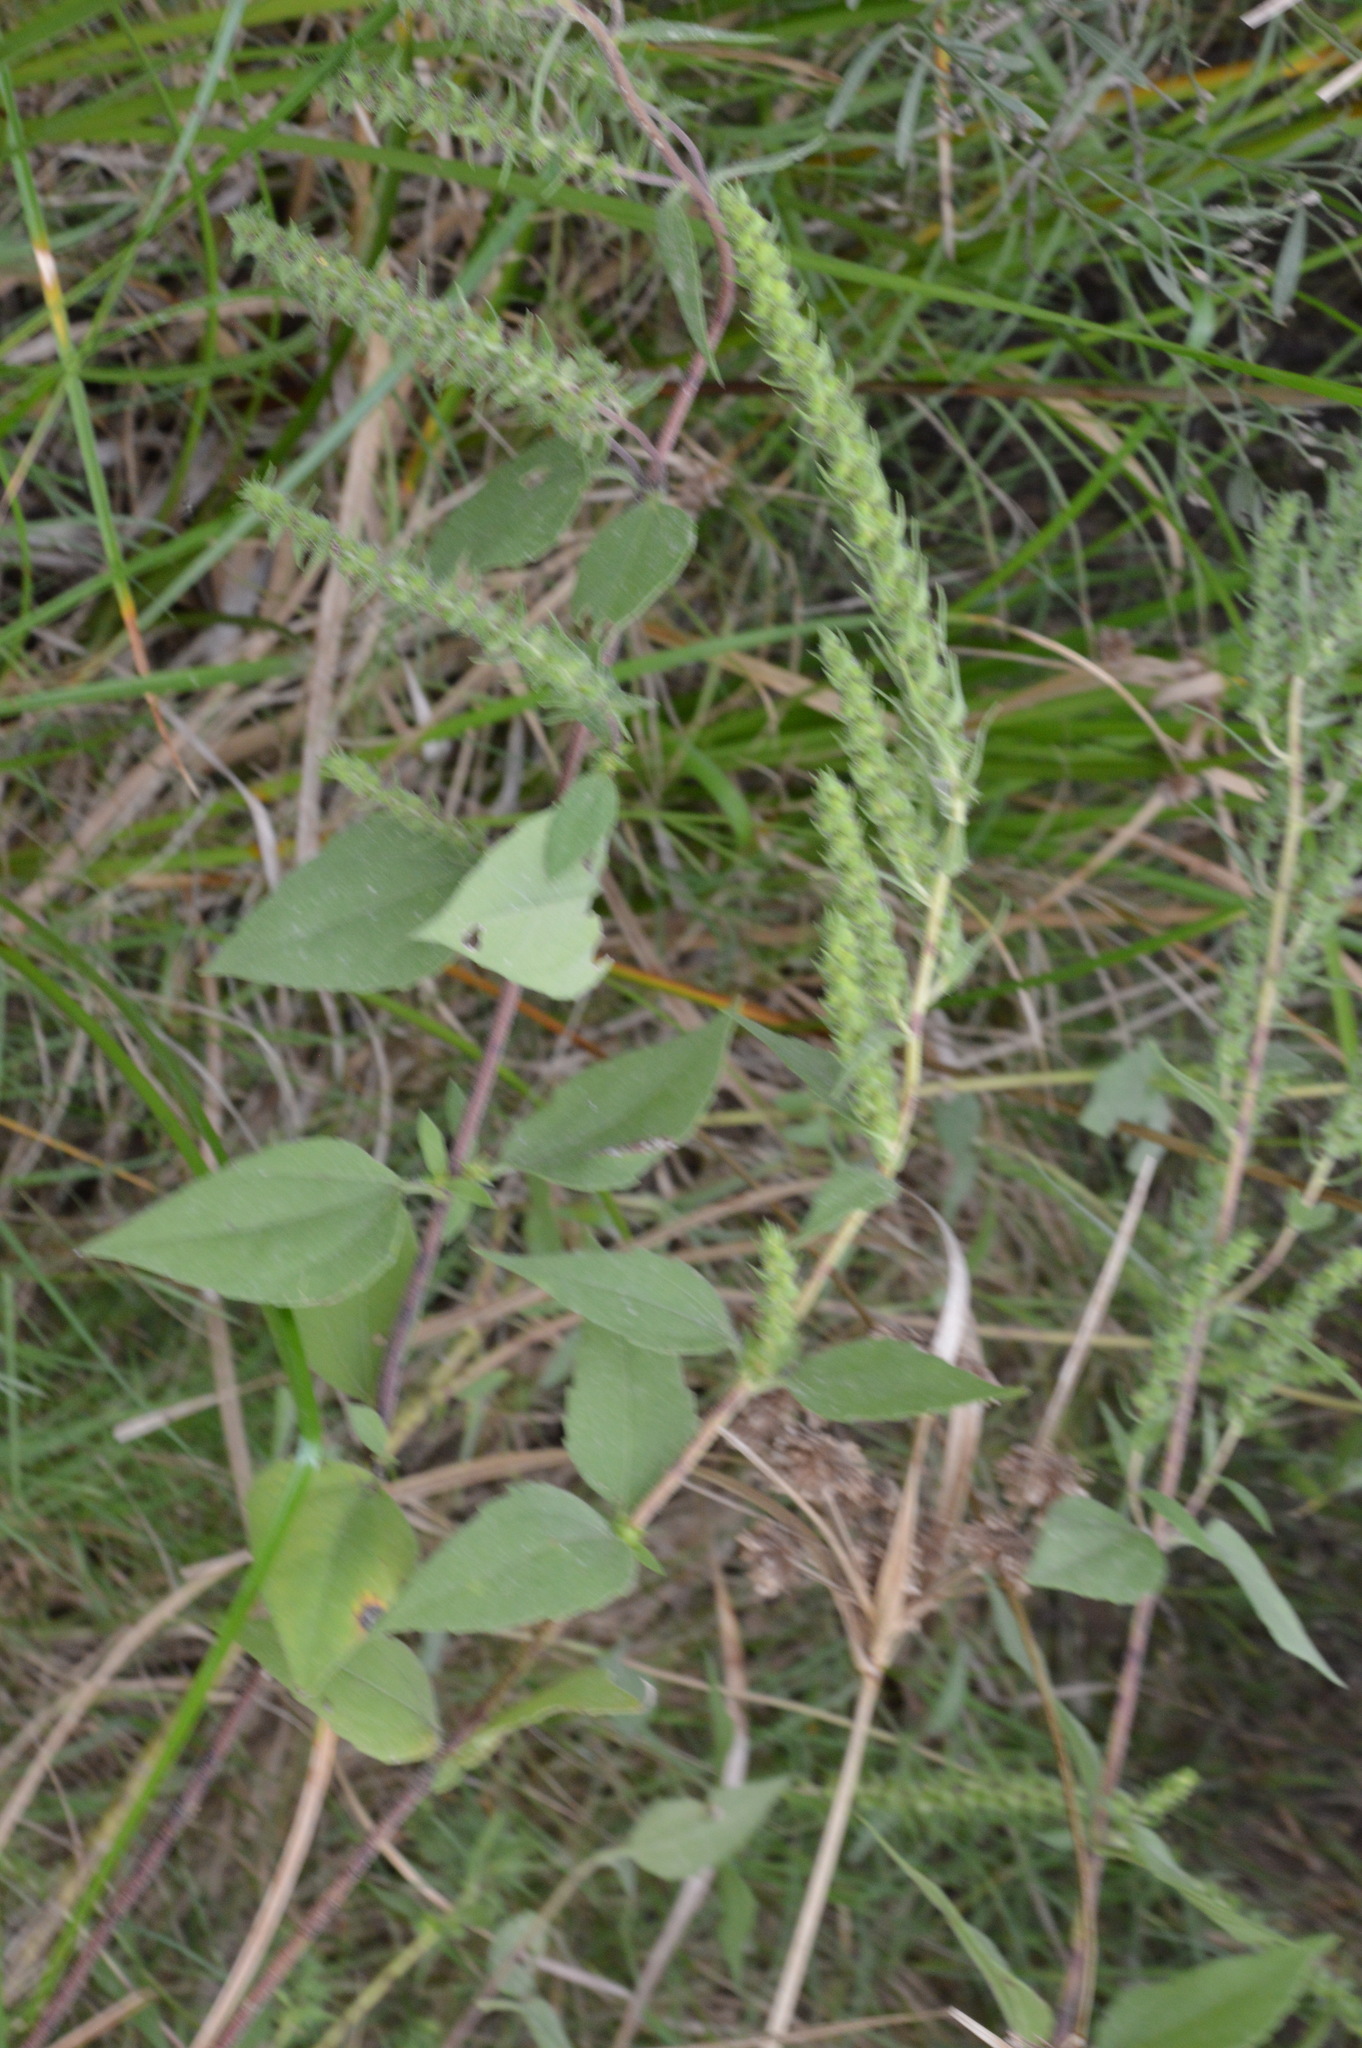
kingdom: Plantae
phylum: Tracheophyta
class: Magnoliopsida
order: Asterales
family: Asteraceae
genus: Iva
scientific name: Iva annua
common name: Marsh-elder
